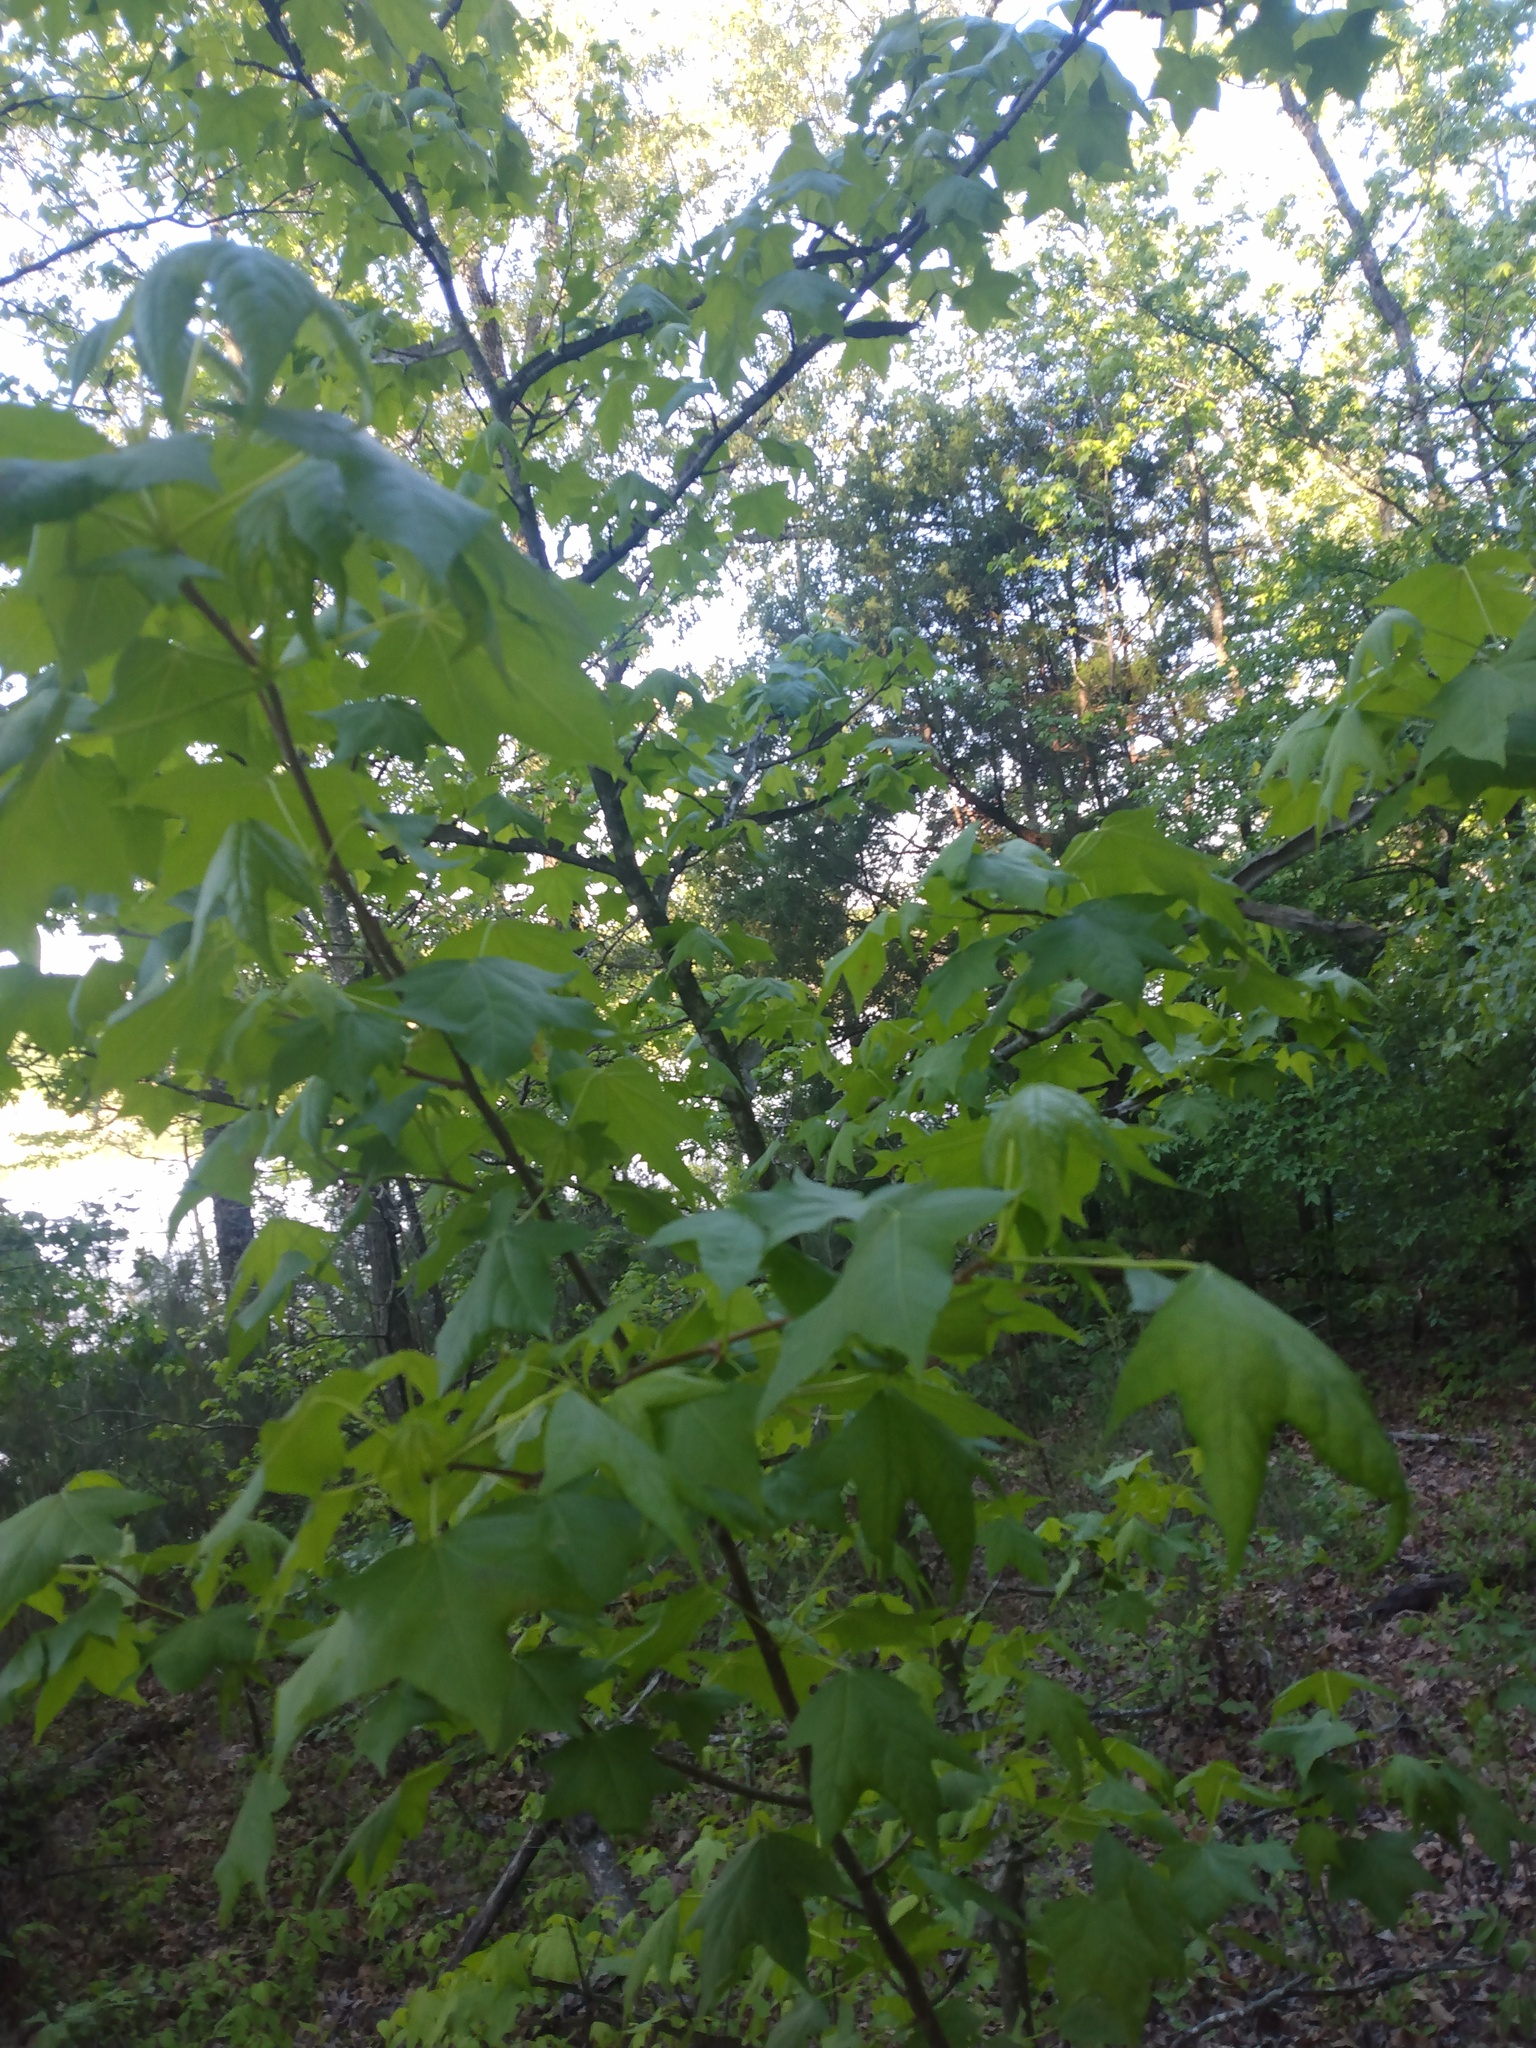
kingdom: Plantae
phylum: Tracheophyta
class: Magnoliopsida
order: Saxifragales
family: Altingiaceae
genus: Liquidambar
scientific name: Liquidambar styraciflua
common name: Sweet gum
